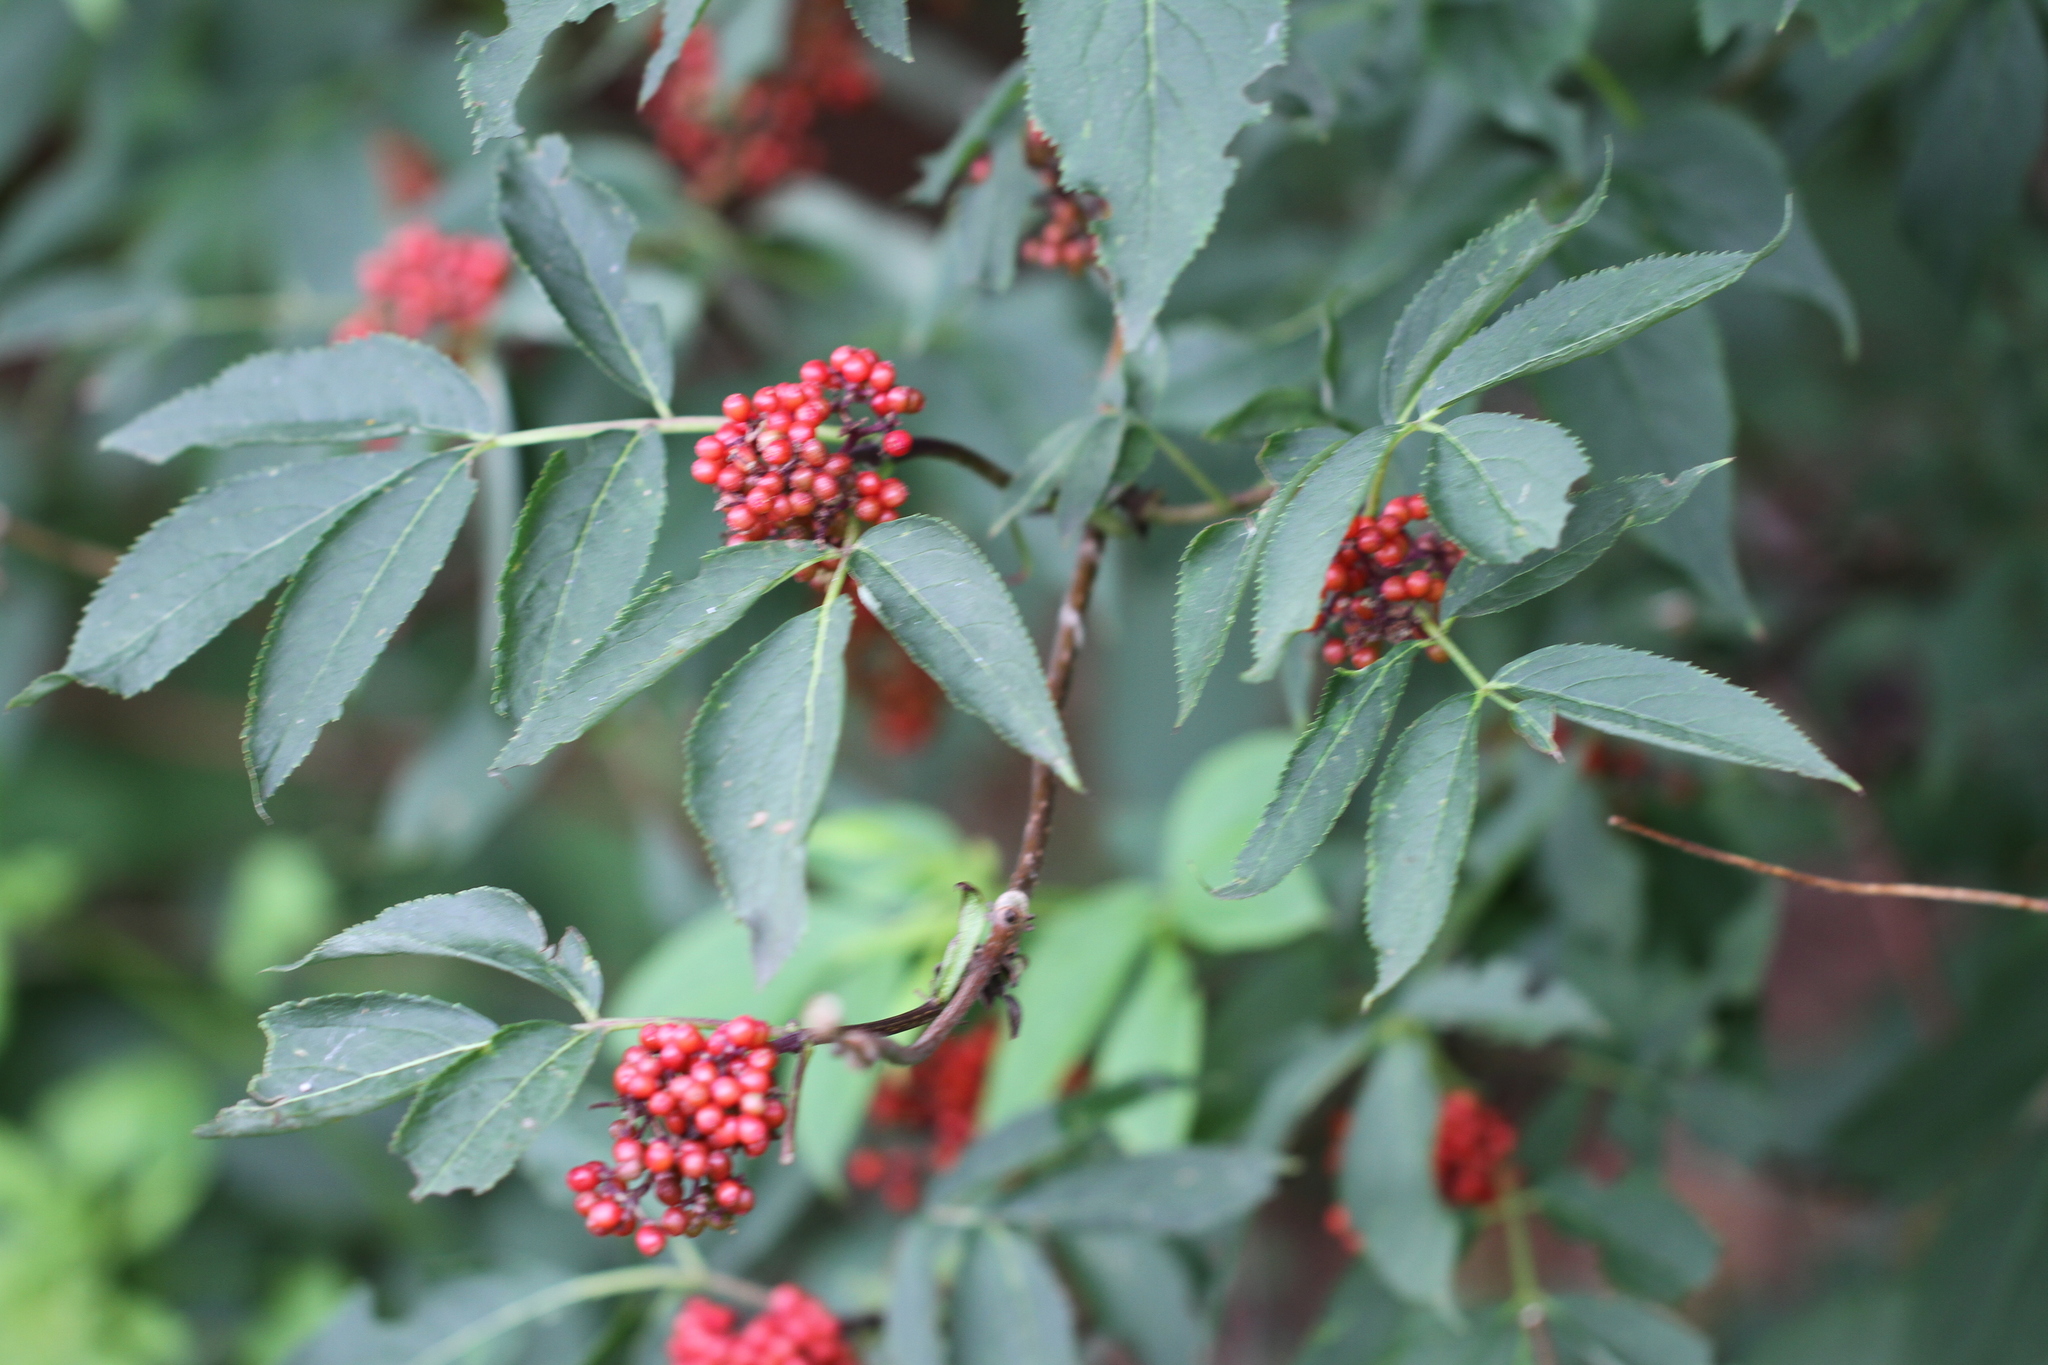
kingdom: Plantae
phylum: Tracheophyta
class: Magnoliopsida
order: Dipsacales
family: Viburnaceae
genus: Sambucus
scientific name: Sambucus racemosa
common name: Red-berried elder
